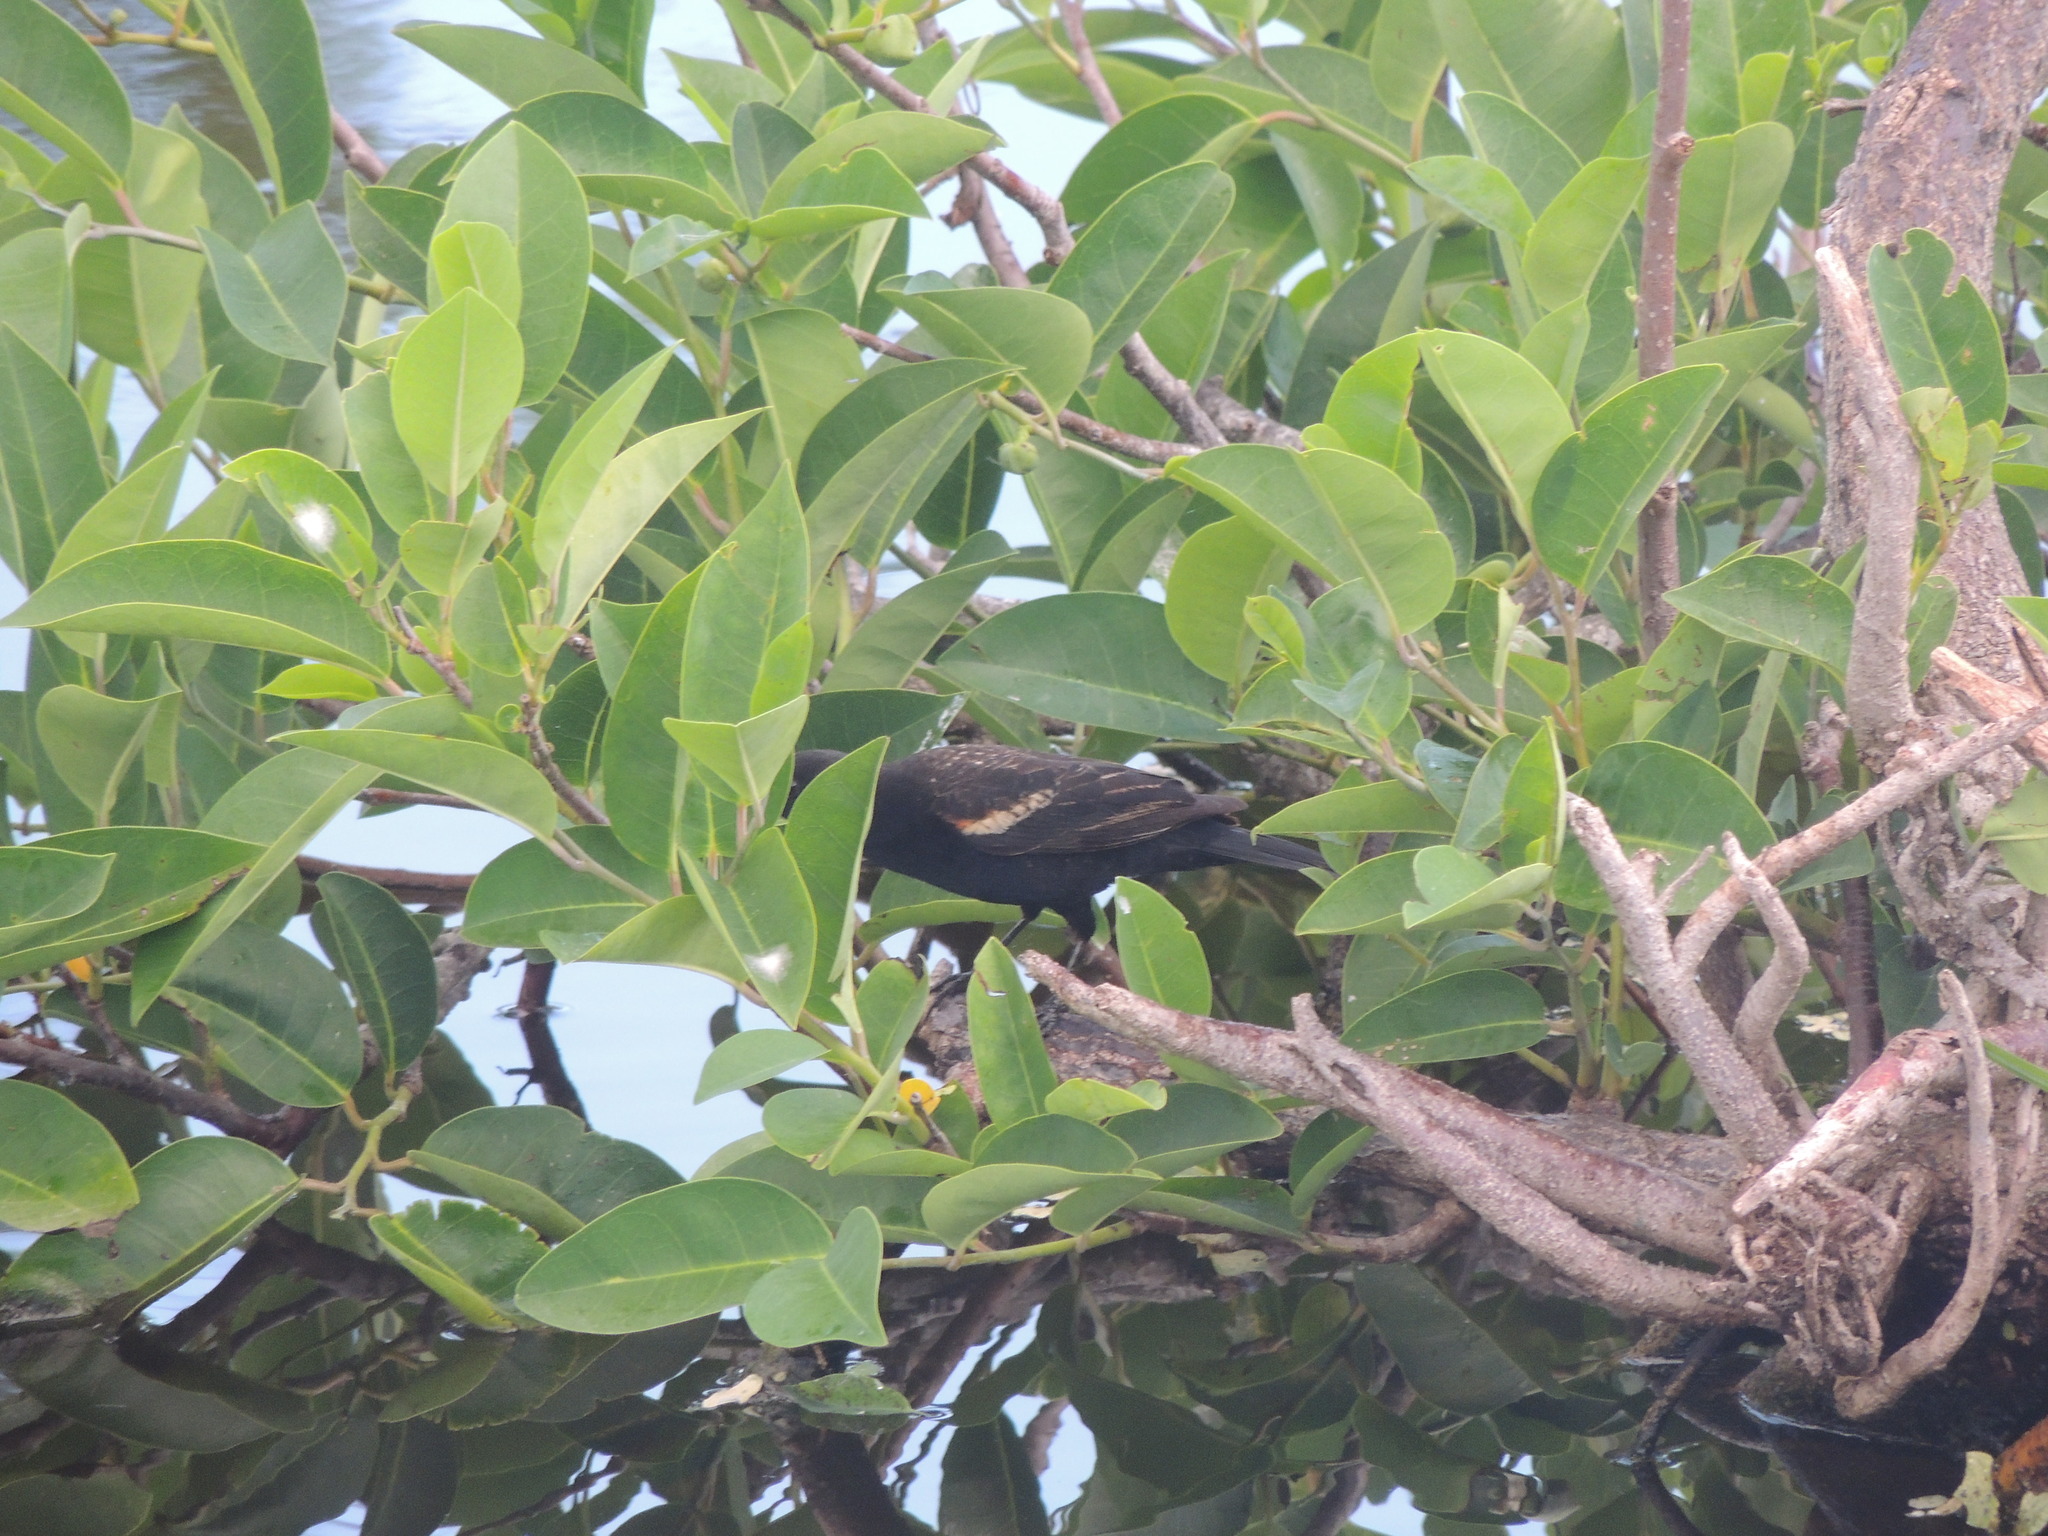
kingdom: Animalia
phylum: Chordata
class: Aves
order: Passeriformes
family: Icteridae
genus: Agelaius
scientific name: Agelaius phoeniceus
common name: Red-winged blackbird
